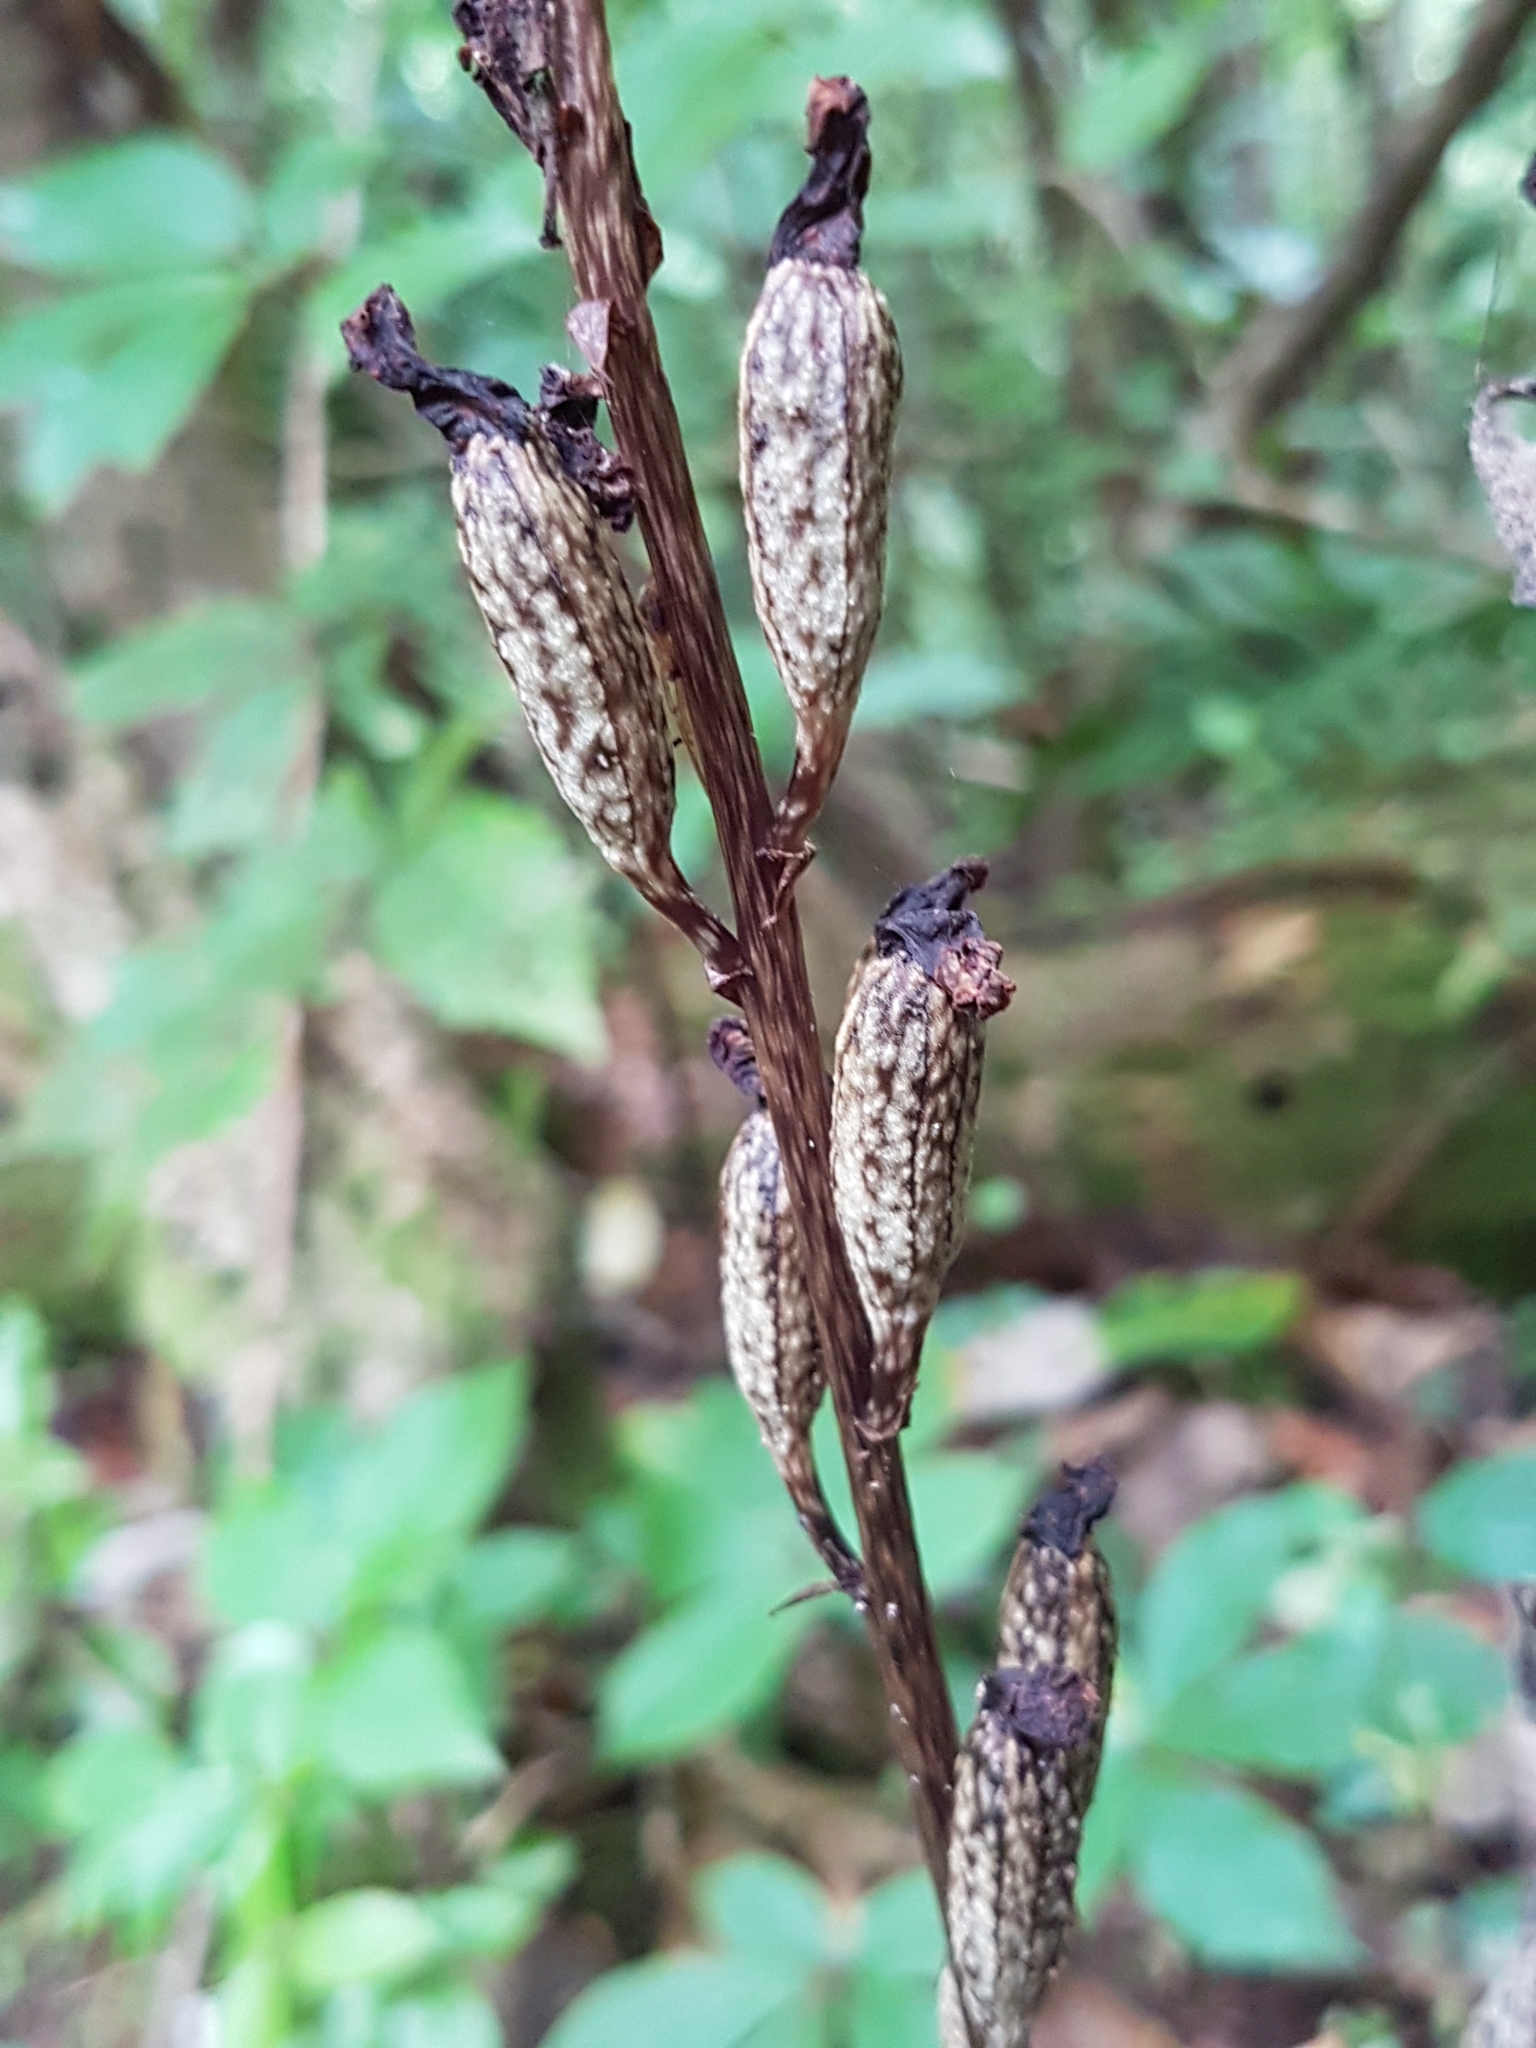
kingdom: Plantae
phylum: Tracheophyta
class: Liliopsida
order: Asparagales
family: Orchidaceae
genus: Gastrodia
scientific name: Gastrodia cunninghamii
